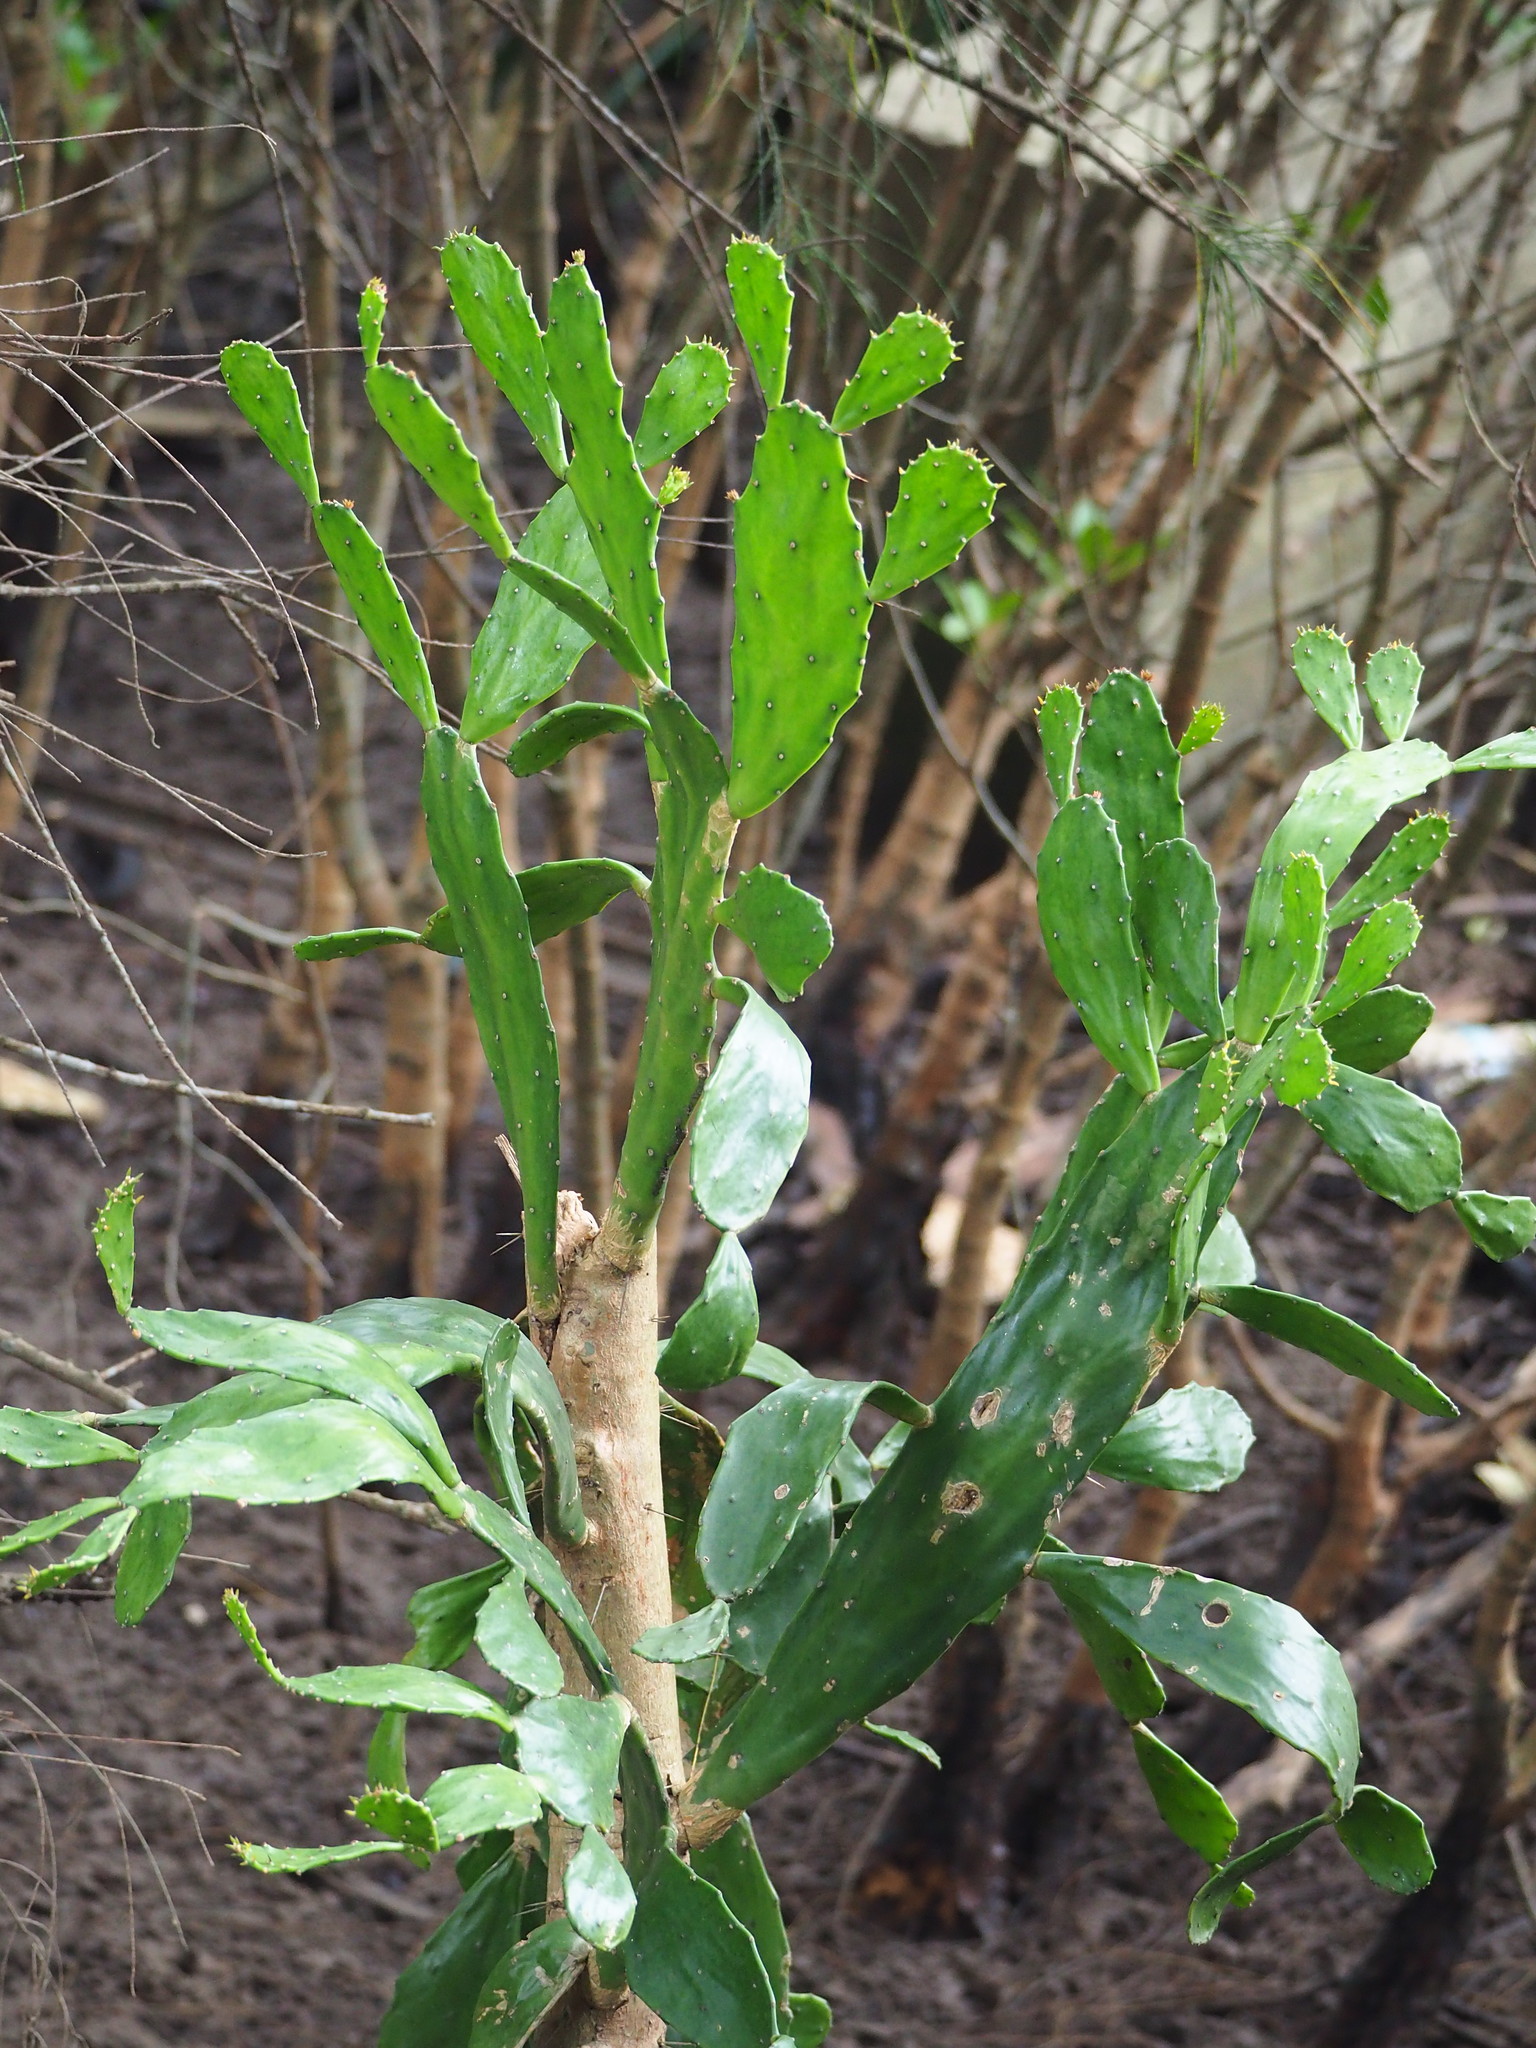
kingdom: Plantae
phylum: Tracheophyta
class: Magnoliopsida
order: Caryophyllales
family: Cactaceae
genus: Opuntia
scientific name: Opuntia cochenillifera
